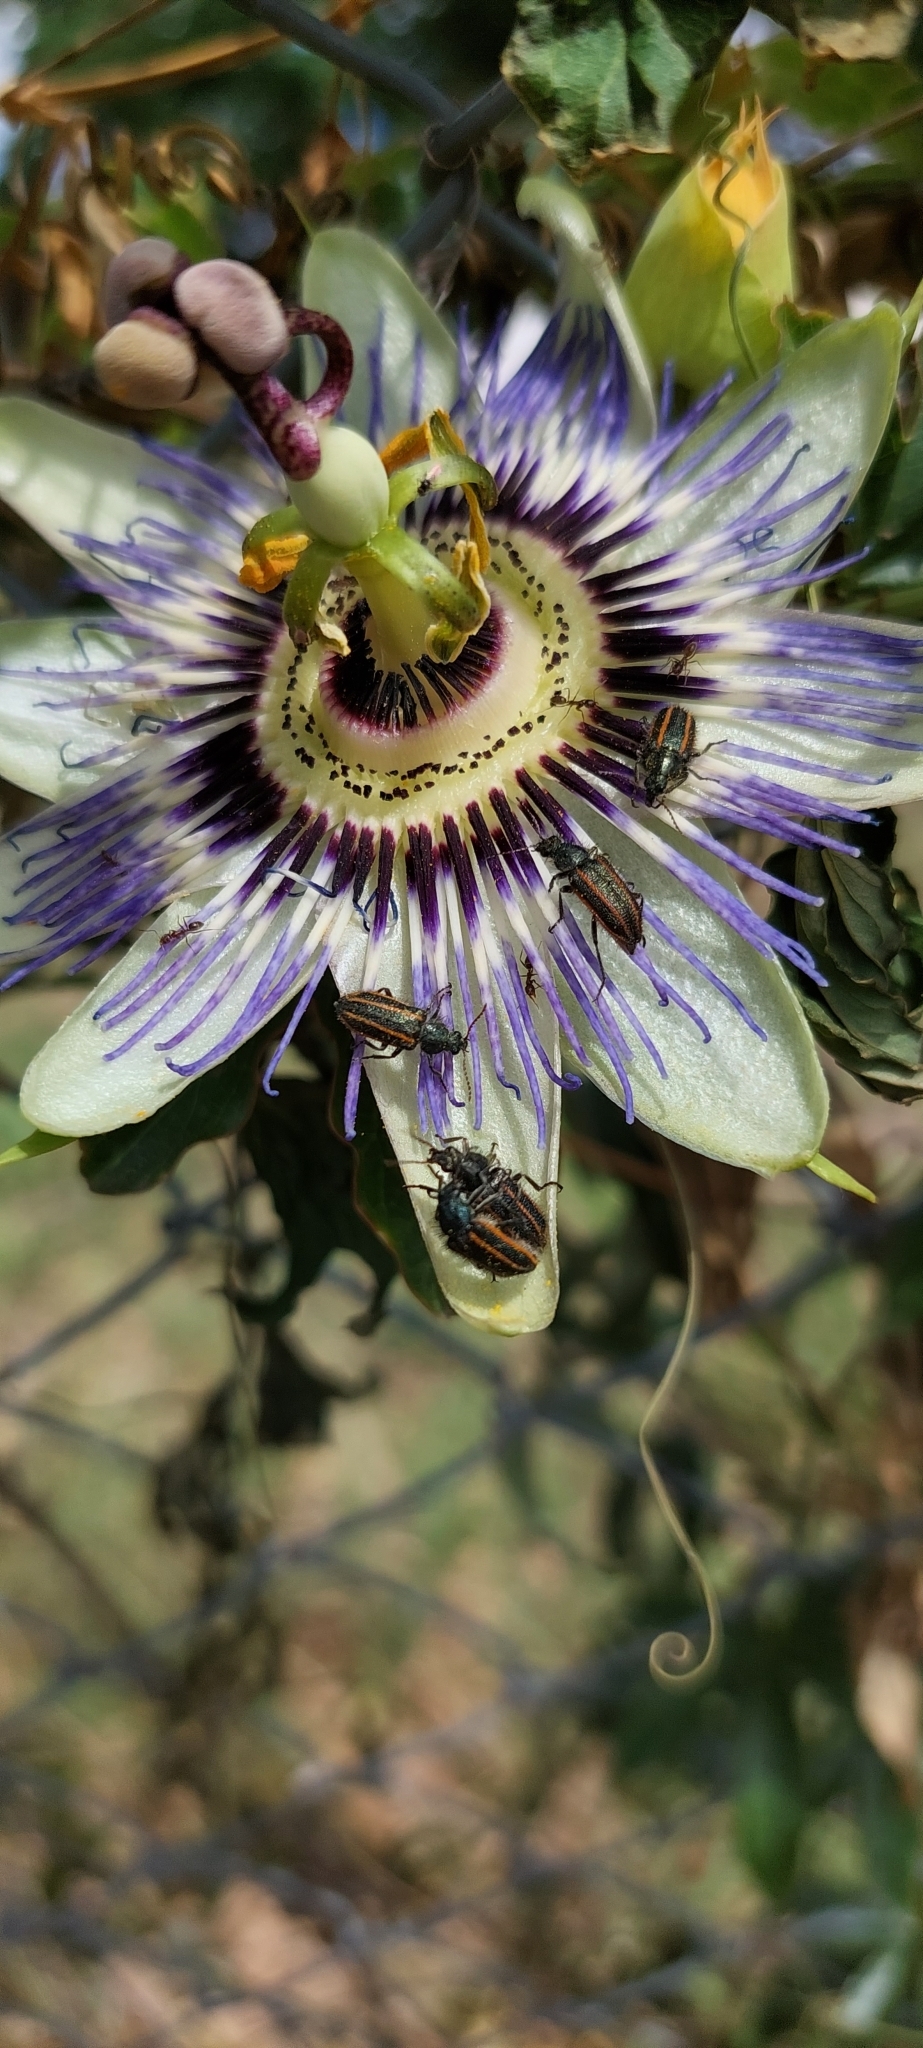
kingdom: Animalia
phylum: Arthropoda
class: Insecta
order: Coleoptera
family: Melyridae
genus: Astylus
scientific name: Astylus
